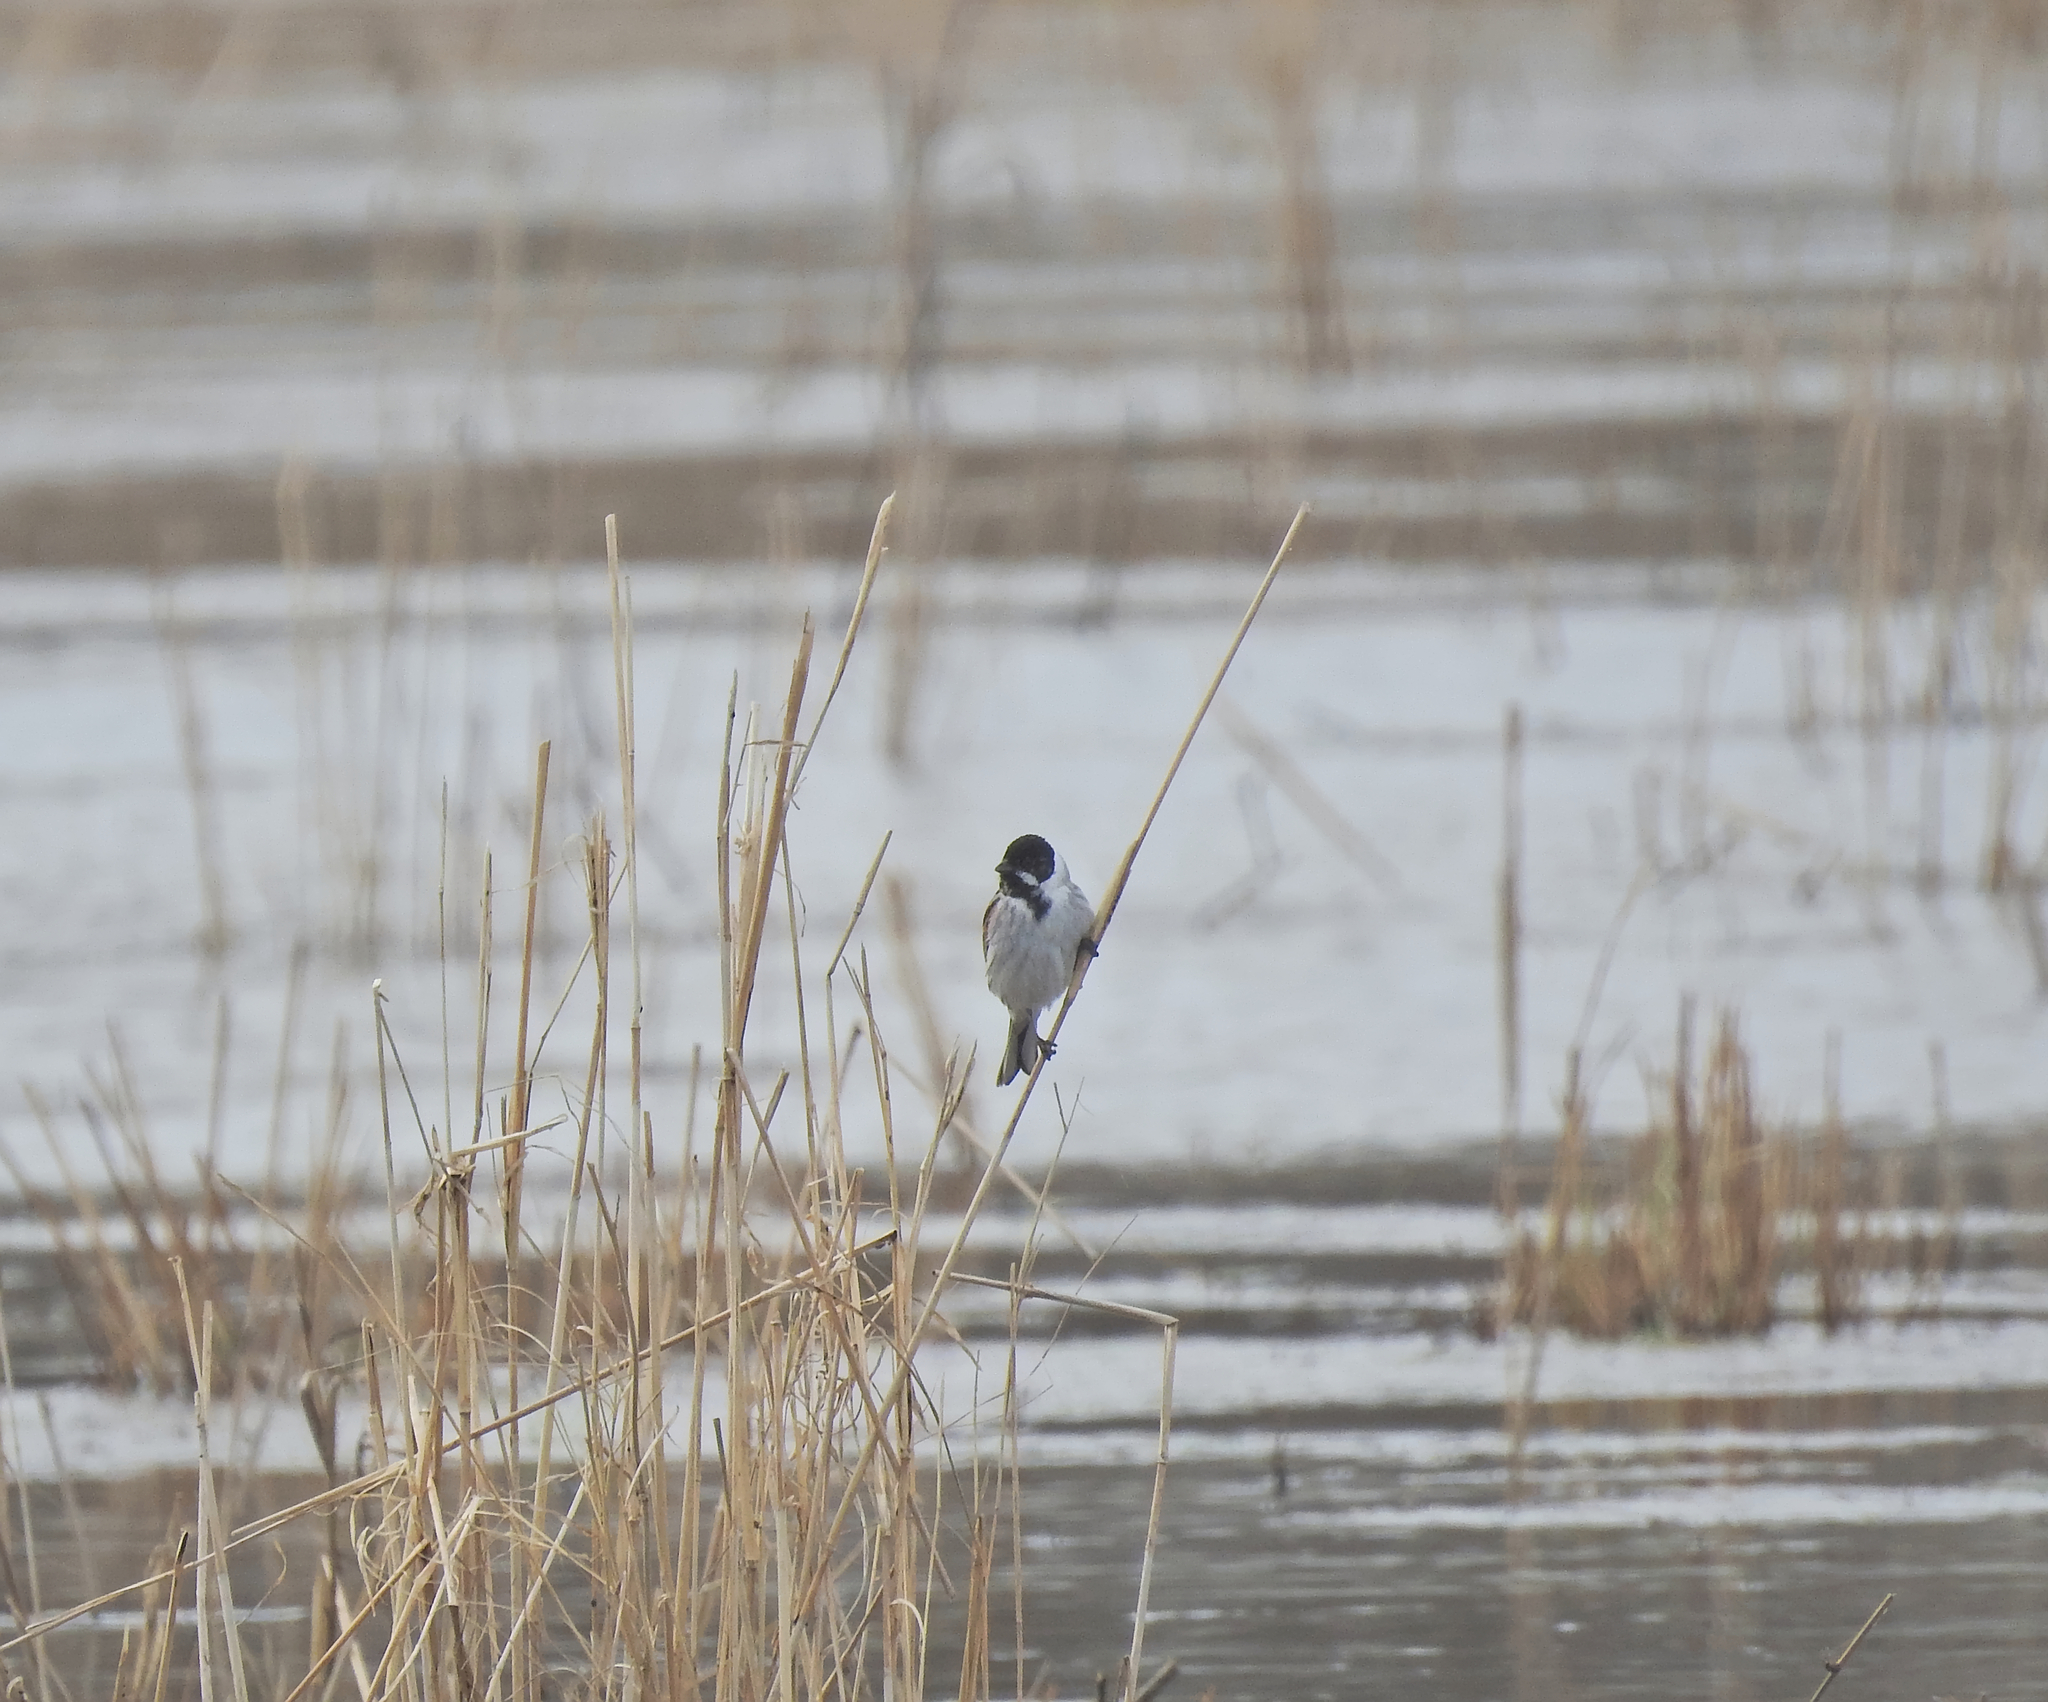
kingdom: Animalia
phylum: Chordata
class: Aves
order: Passeriformes
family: Emberizidae
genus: Emberiza
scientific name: Emberiza schoeniclus
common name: Reed bunting
